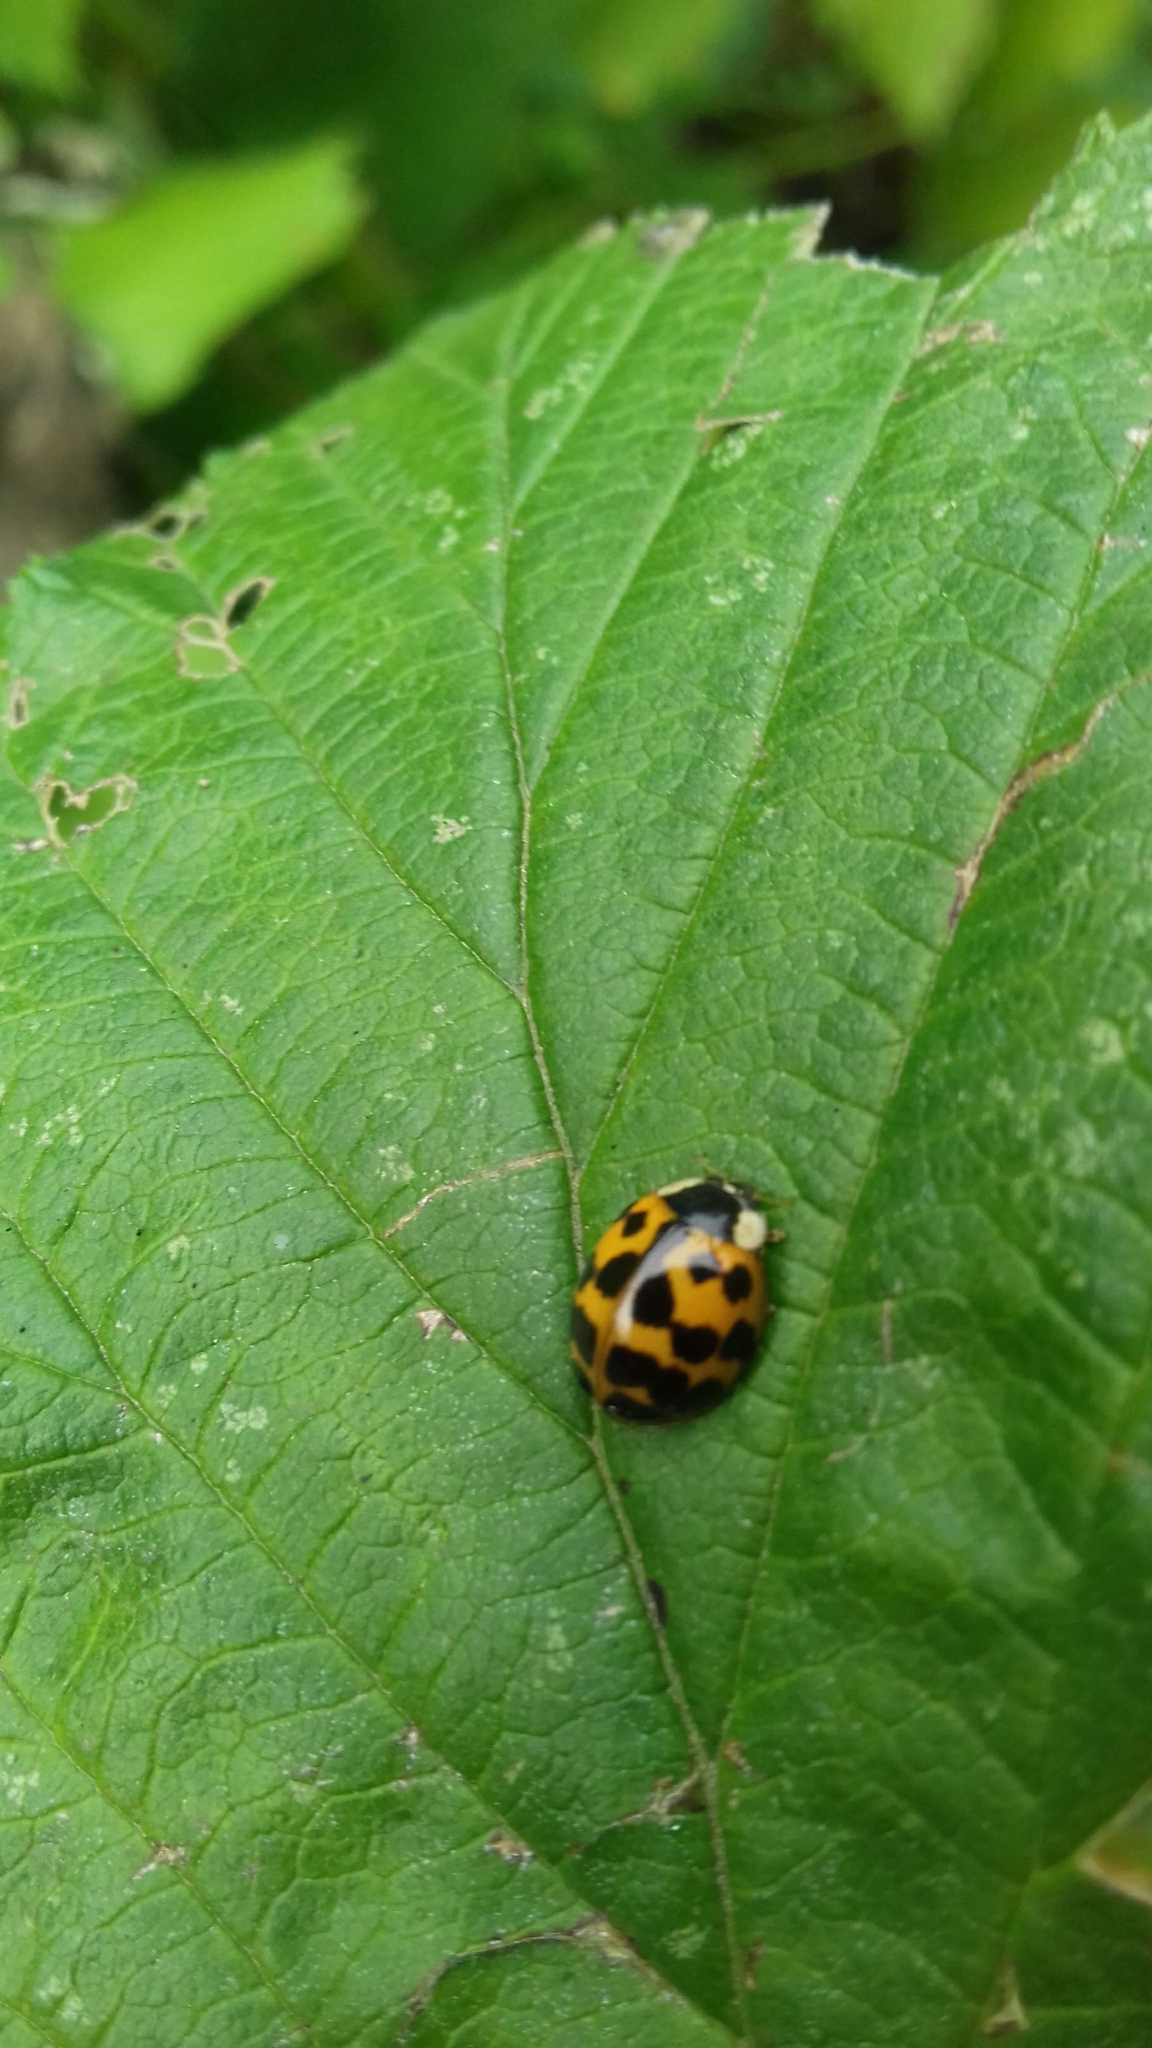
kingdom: Animalia
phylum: Arthropoda
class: Insecta
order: Coleoptera
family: Coccinellidae
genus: Harmonia
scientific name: Harmonia axyridis
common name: Harlequin ladybird
